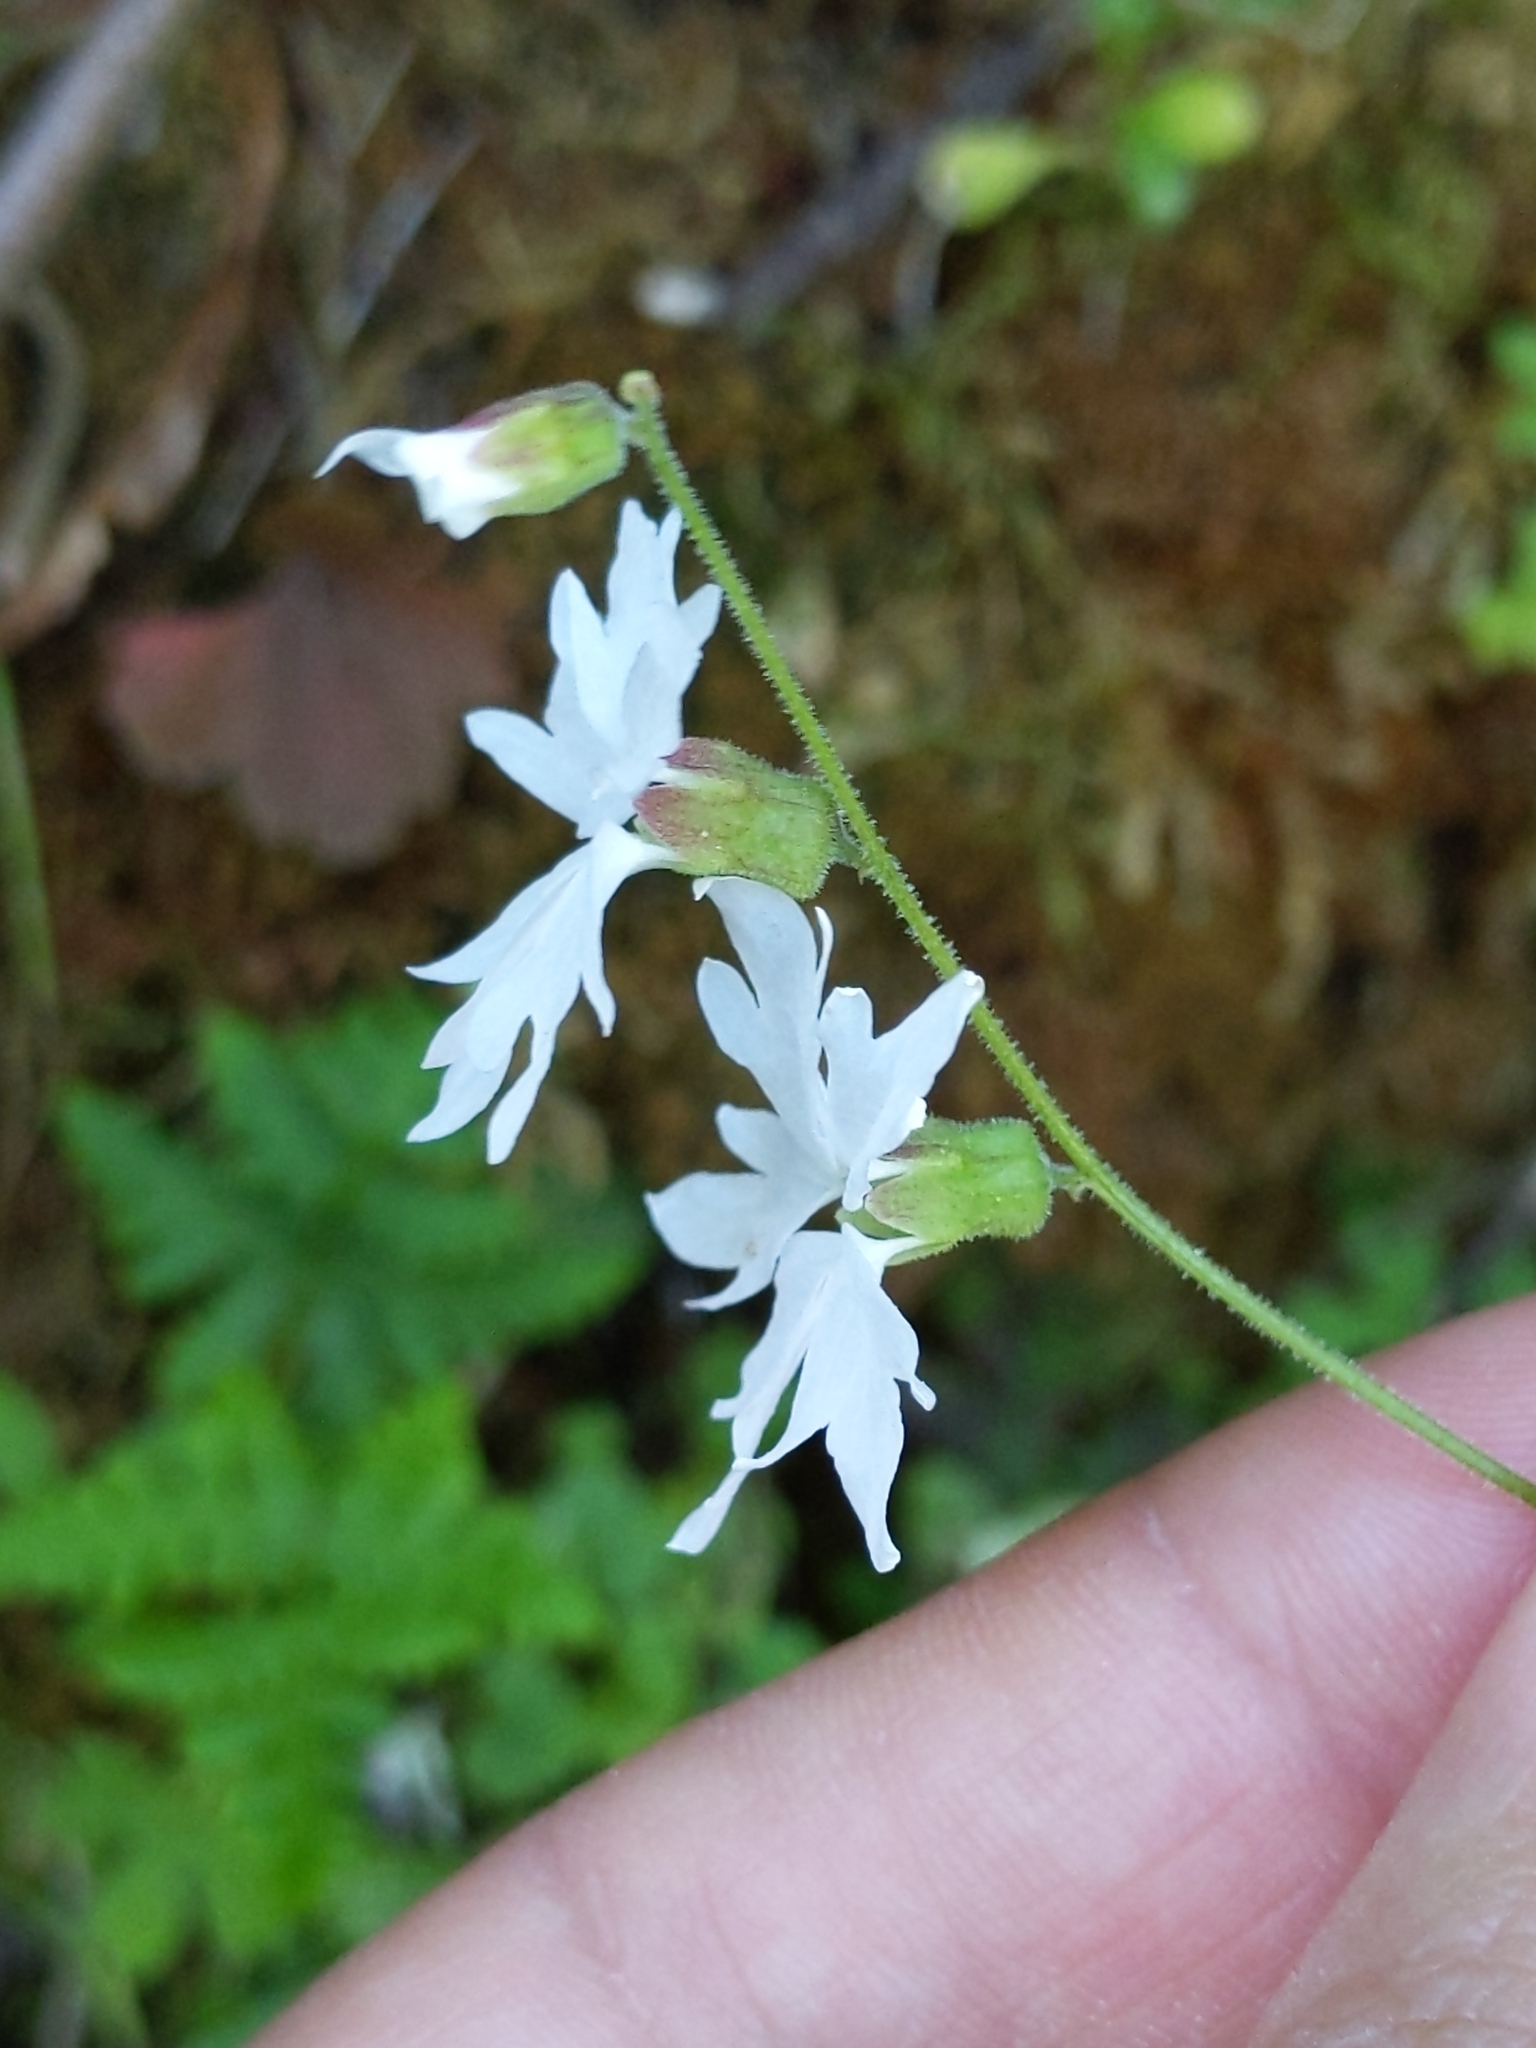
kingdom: Plantae
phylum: Tracheophyta
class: Magnoliopsida
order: Saxifragales
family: Saxifragaceae
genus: Lithophragma
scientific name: Lithophragma heterophyllum
